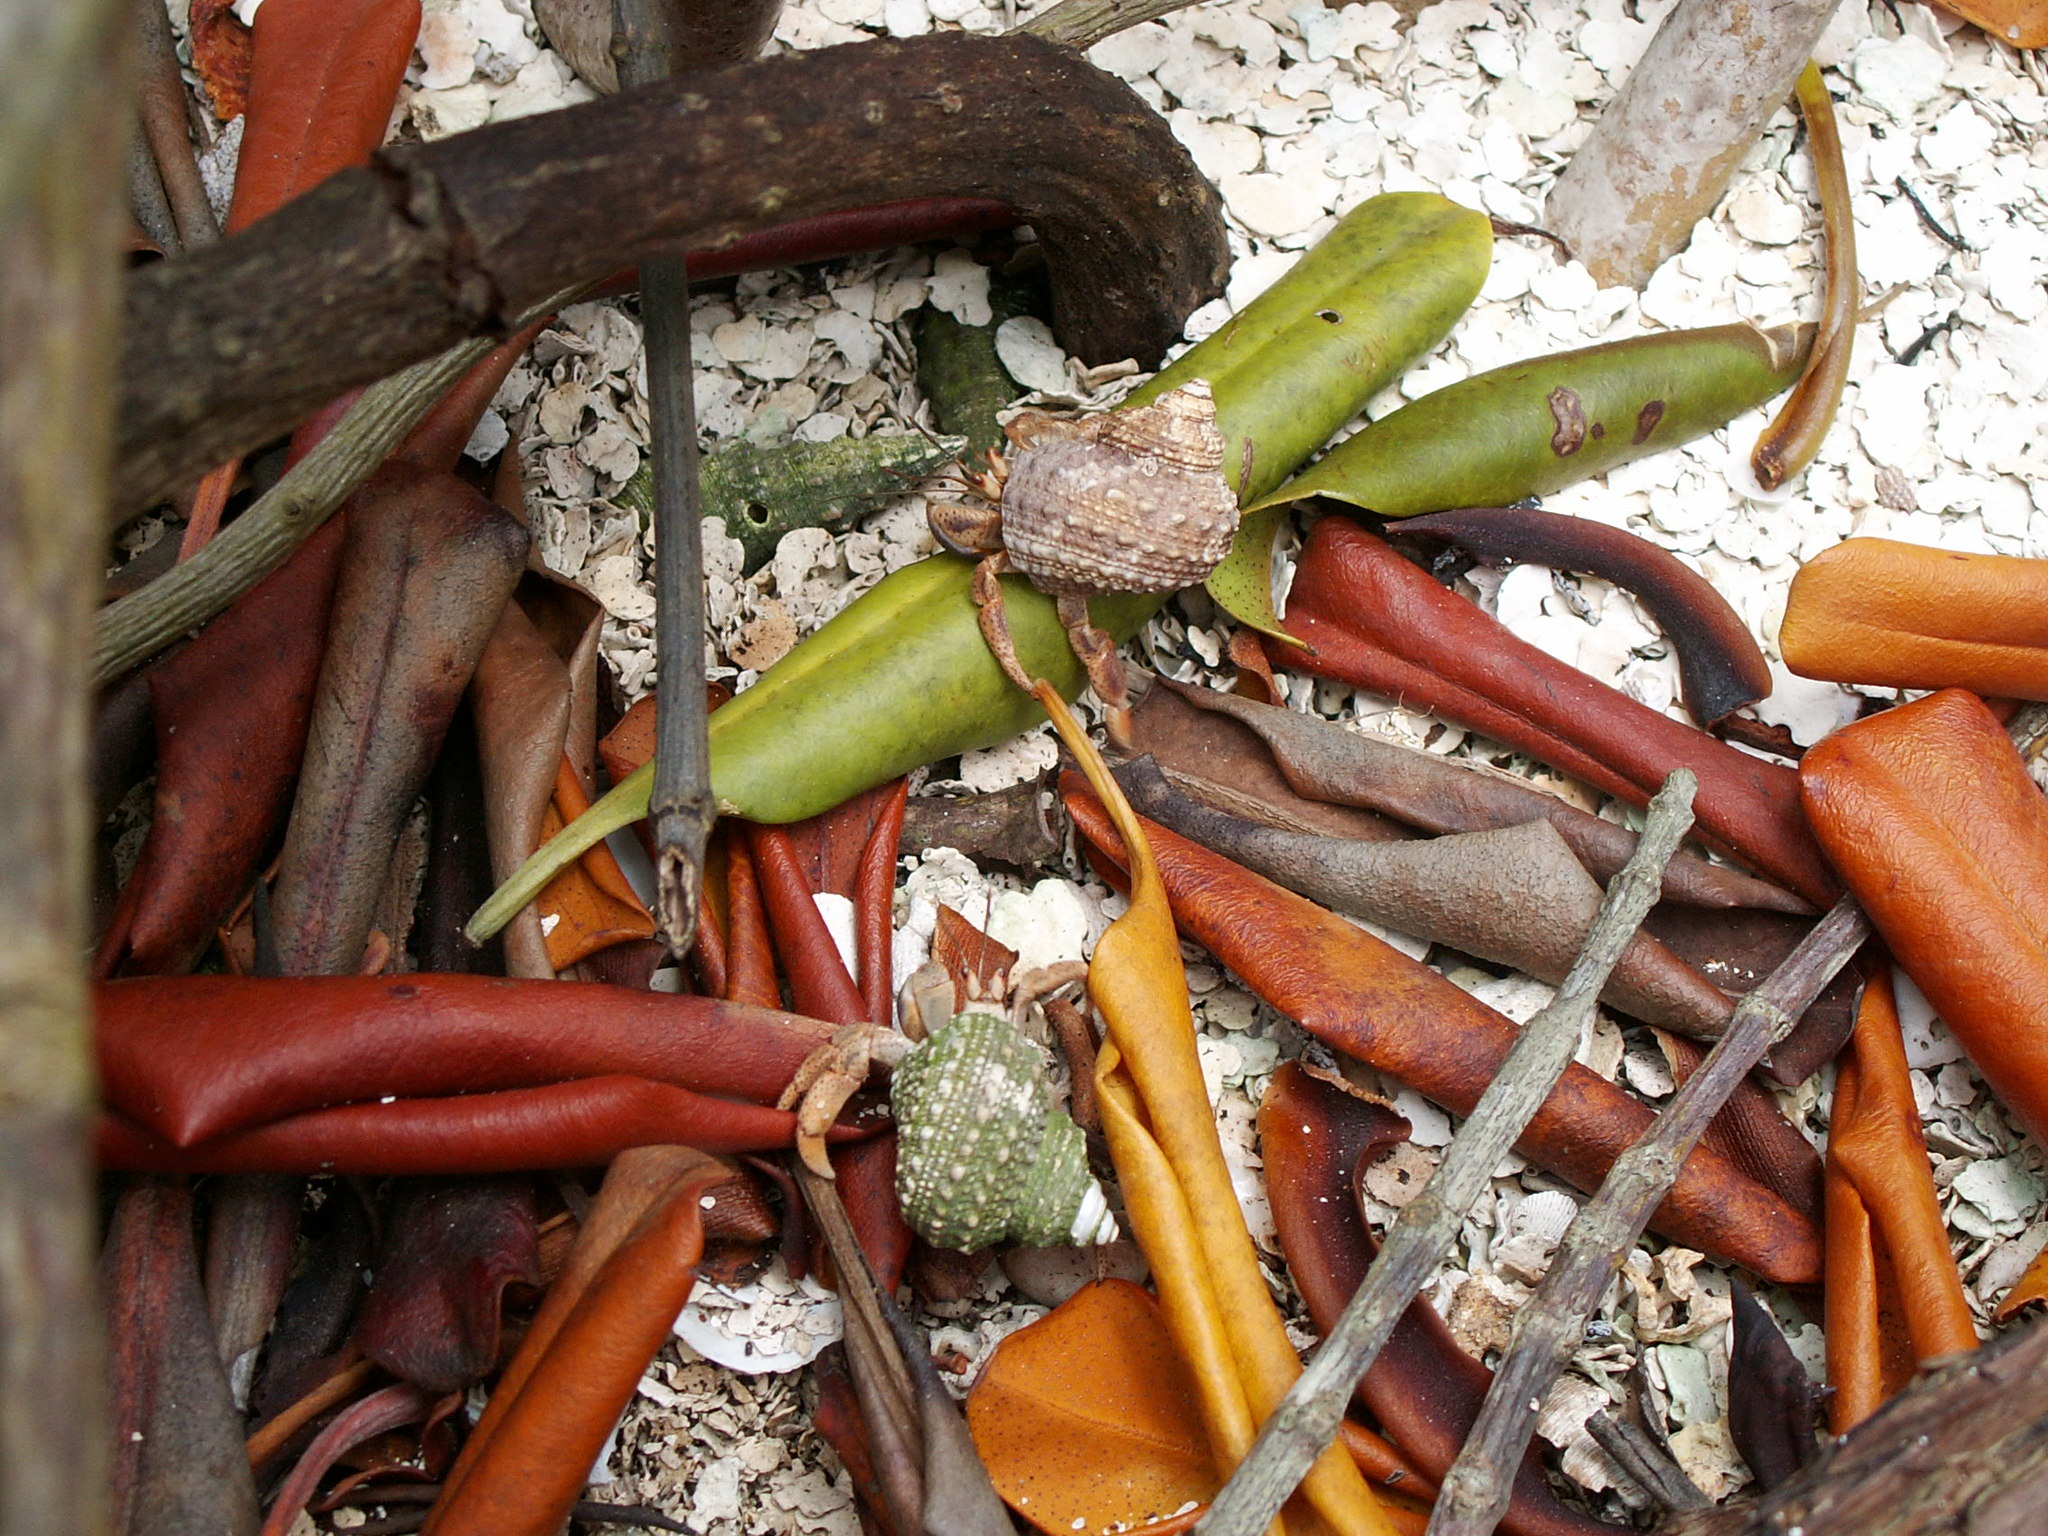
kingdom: Animalia
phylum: Arthropoda
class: Malacostraca
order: Decapoda
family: Coenobitidae
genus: Coenobita
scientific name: Coenobita clypeatus
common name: Caribbean hermit crab
